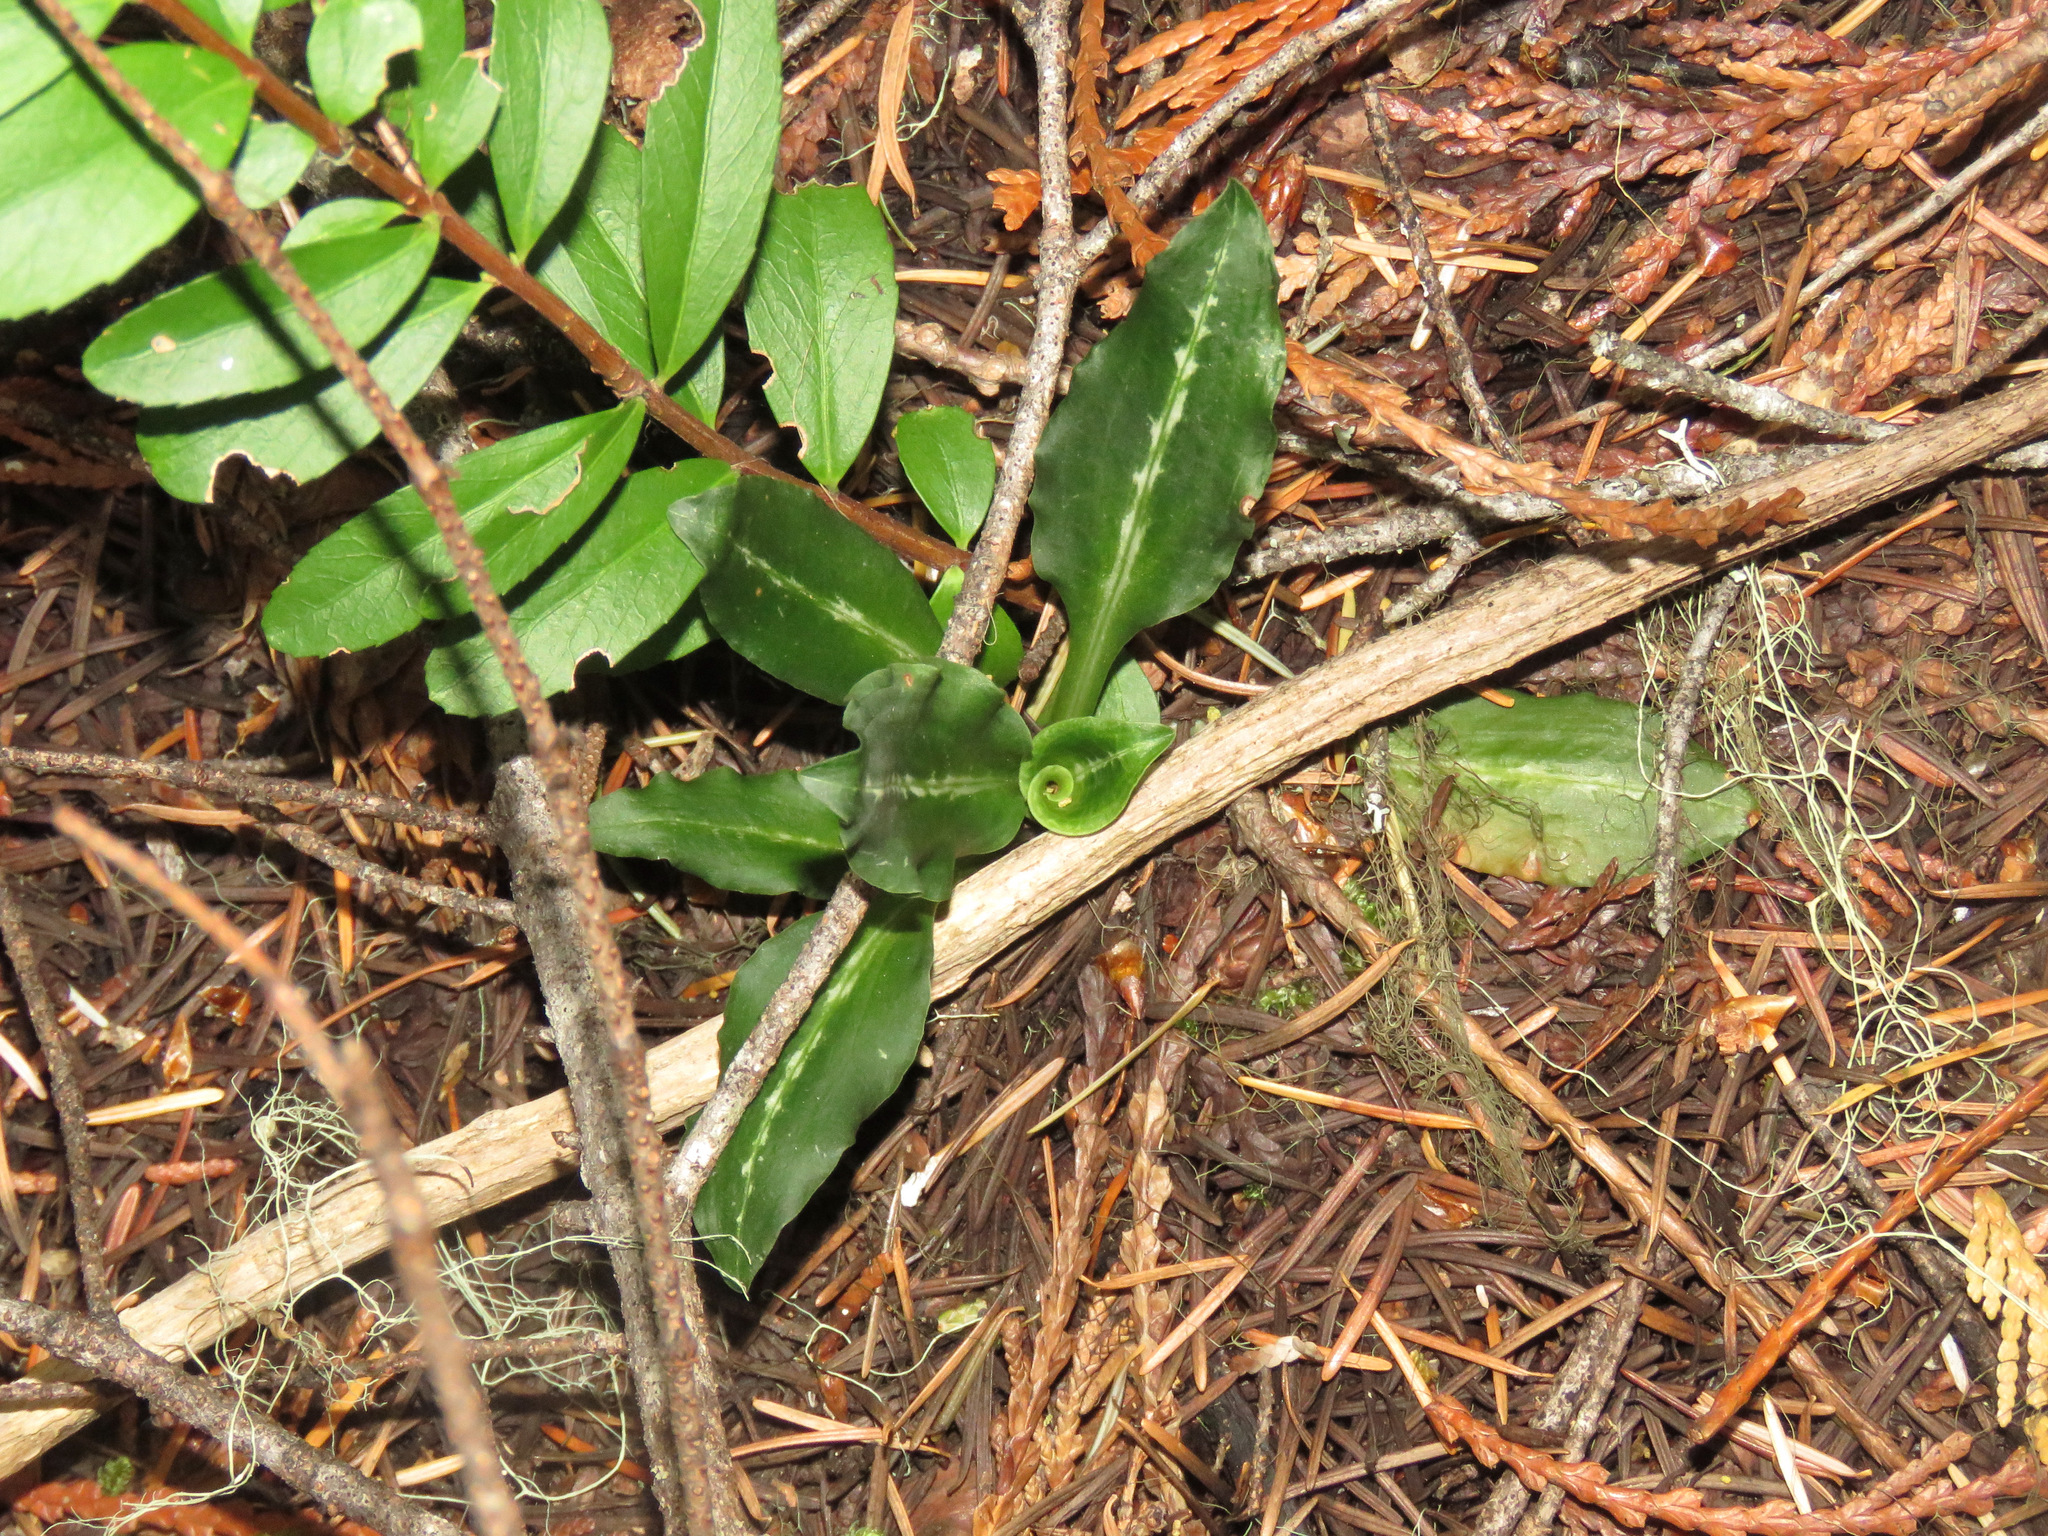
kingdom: Plantae
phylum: Tracheophyta
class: Liliopsida
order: Asparagales
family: Orchidaceae
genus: Goodyera
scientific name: Goodyera oblongifolia
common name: Giant rattlesnake-plantain
